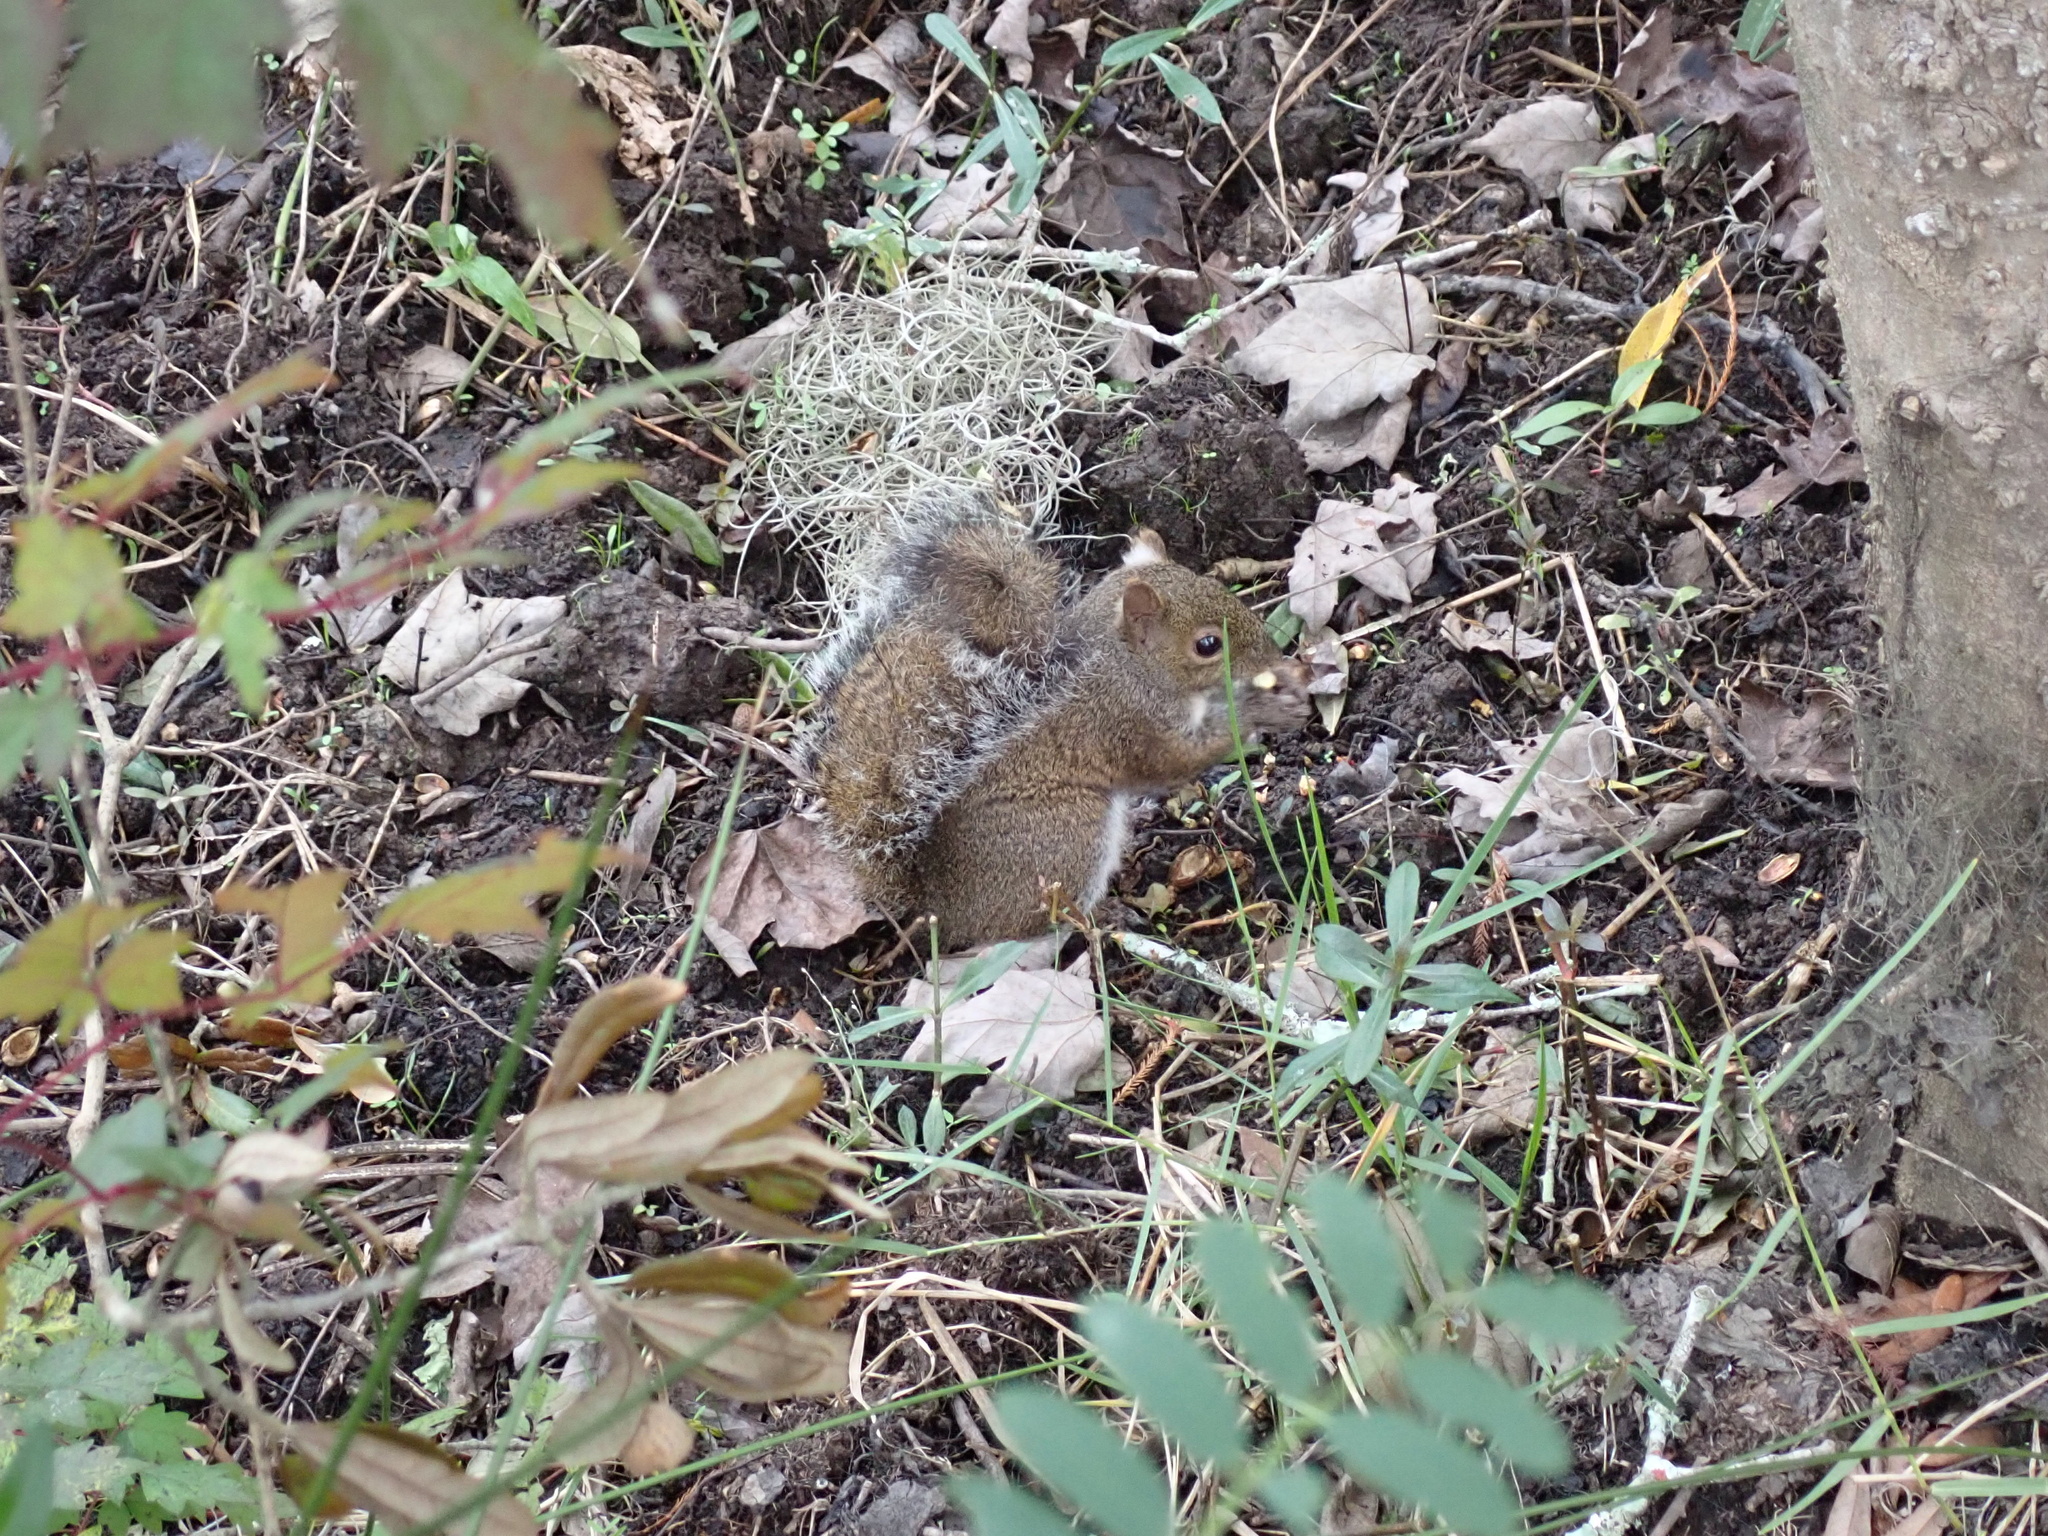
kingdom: Animalia
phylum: Chordata
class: Mammalia
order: Rodentia
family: Sciuridae
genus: Sciurus
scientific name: Sciurus carolinensis
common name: Eastern gray squirrel
